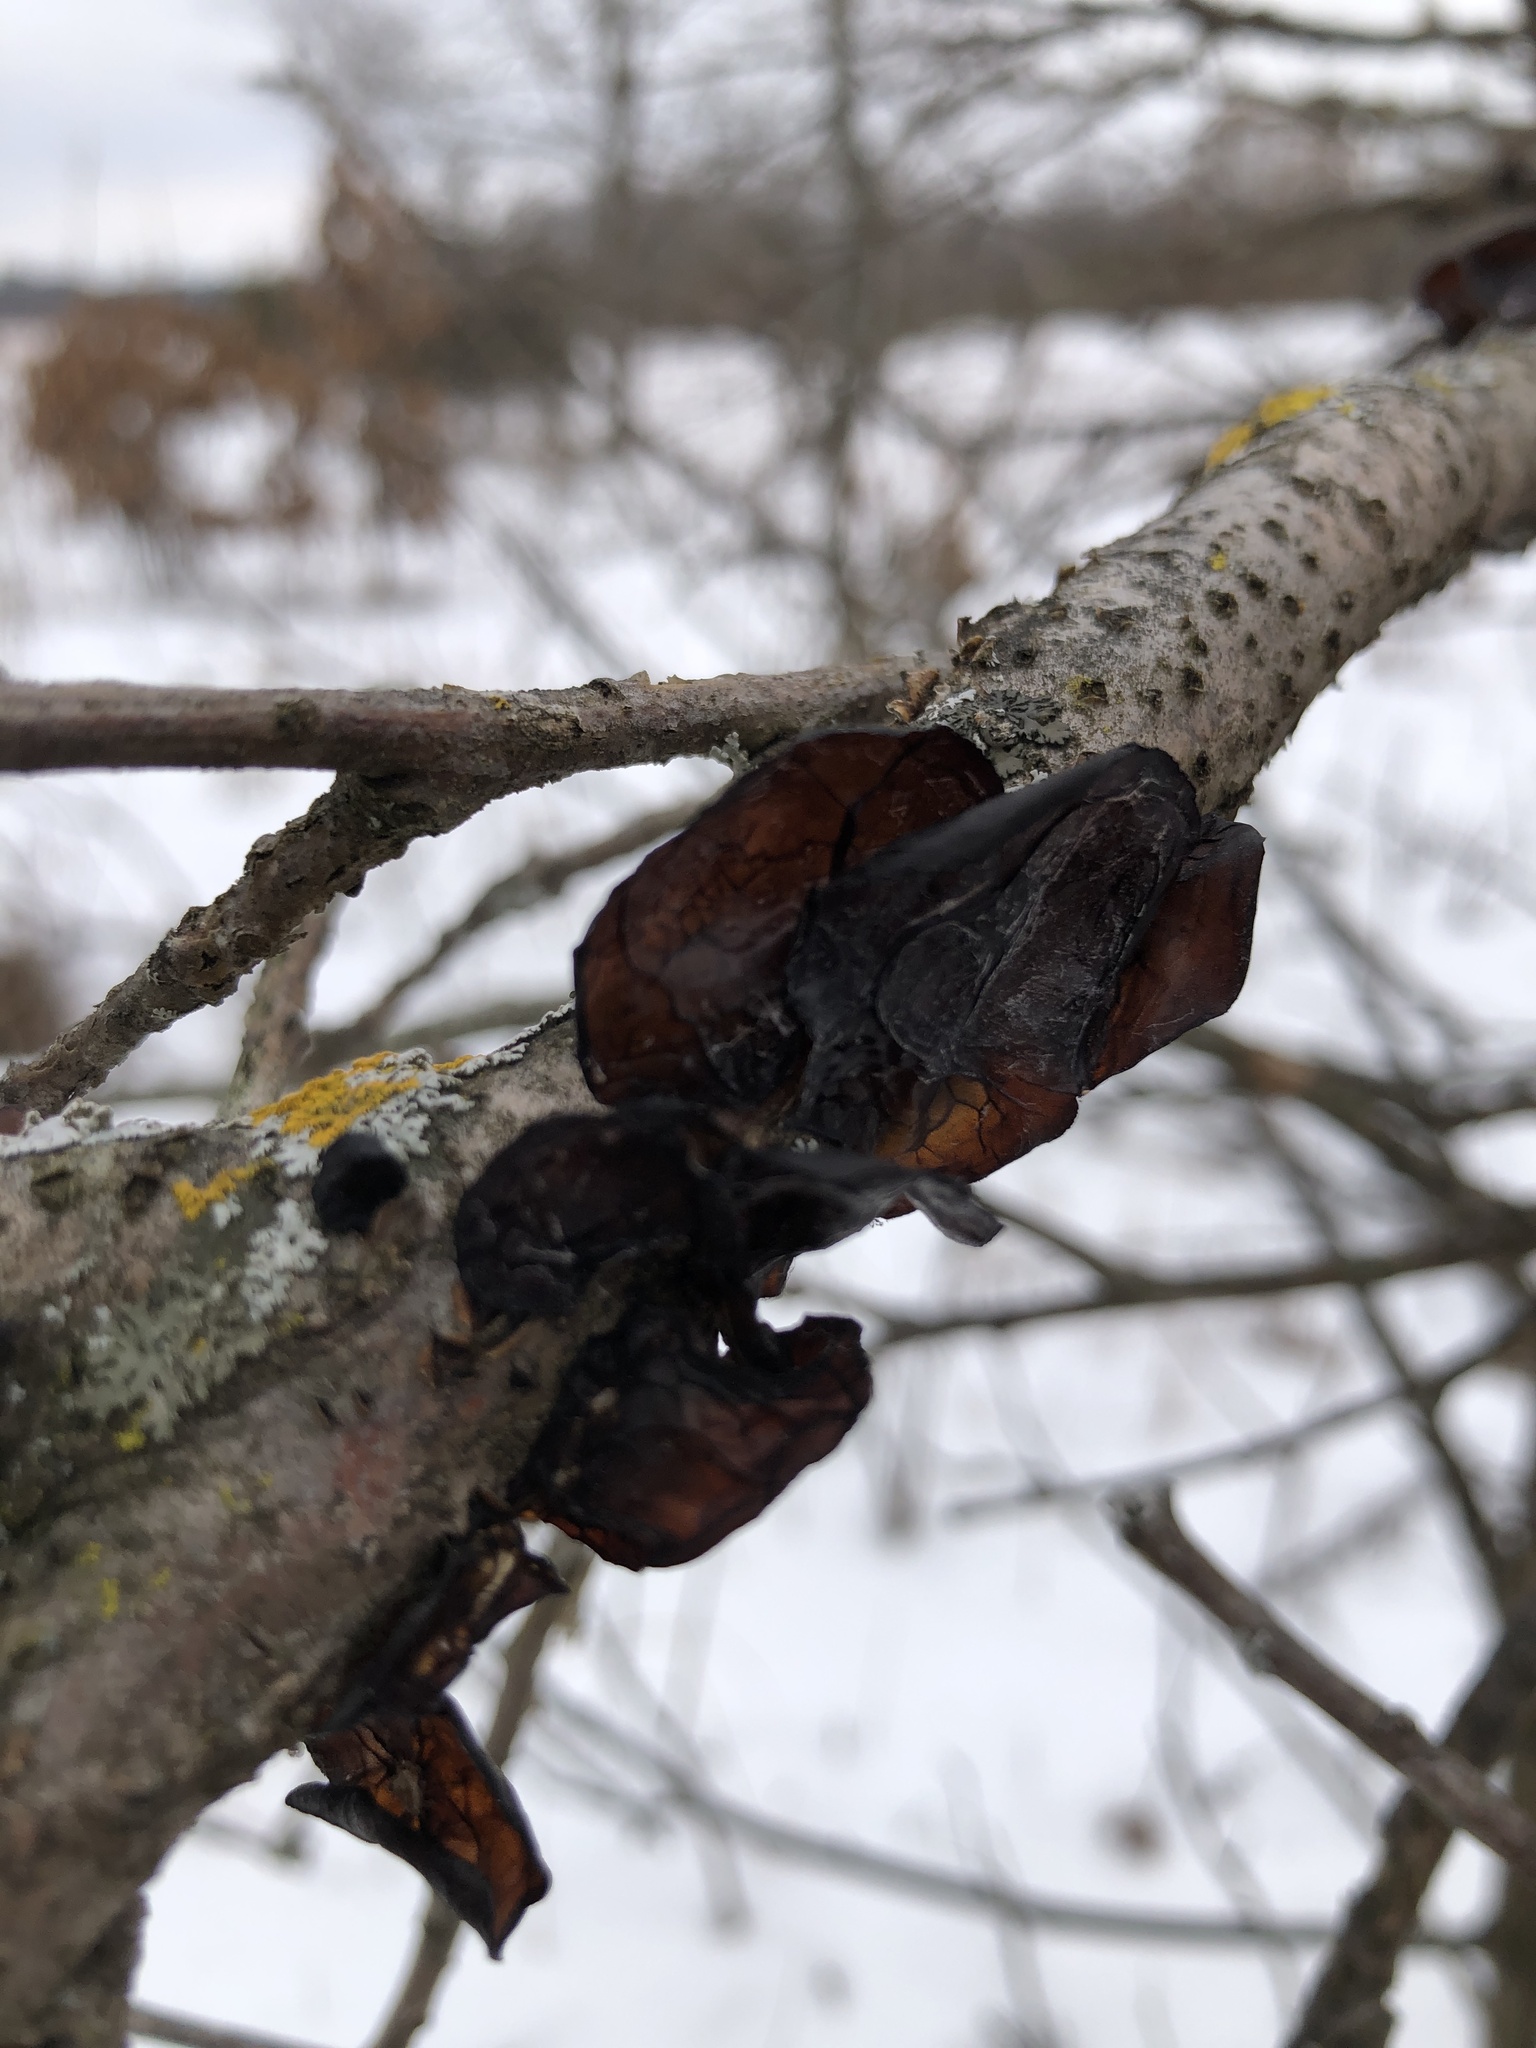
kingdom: Fungi
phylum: Basidiomycota
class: Agaricomycetes
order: Auriculariales
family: Auriculariaceae
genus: Exidia
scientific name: Exidia
